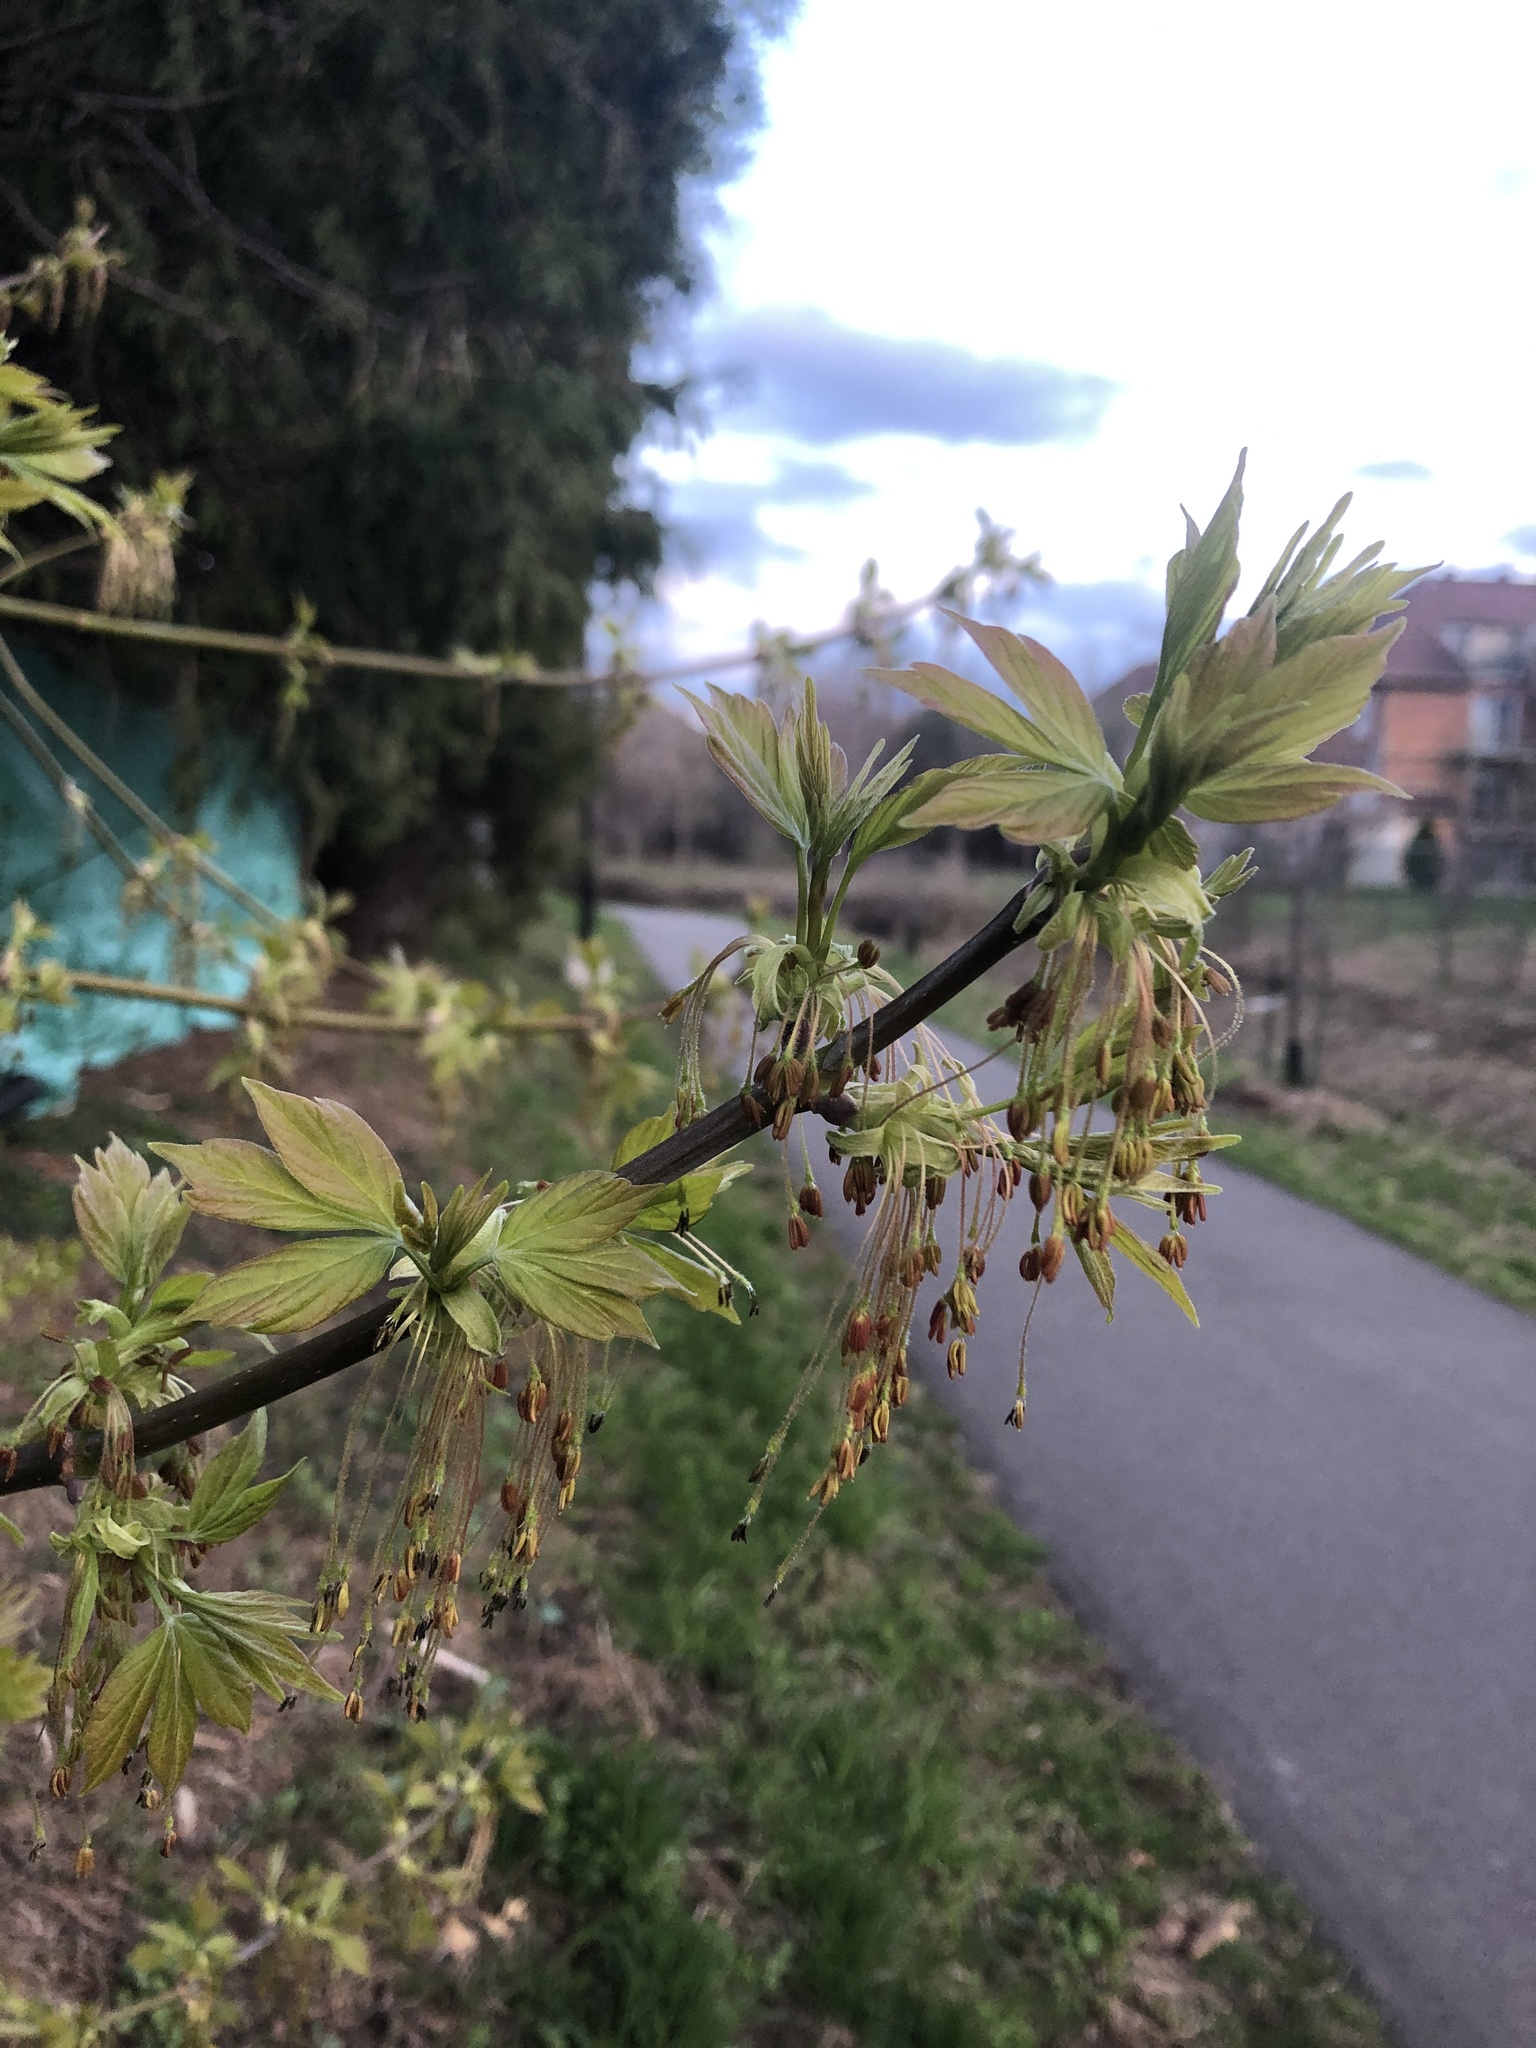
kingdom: Plantae
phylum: Tracheophyta
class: Magnoliopsida
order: Sapindales
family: Sapindaceae
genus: Acer
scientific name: Acer negundo
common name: Ashleaf maple
